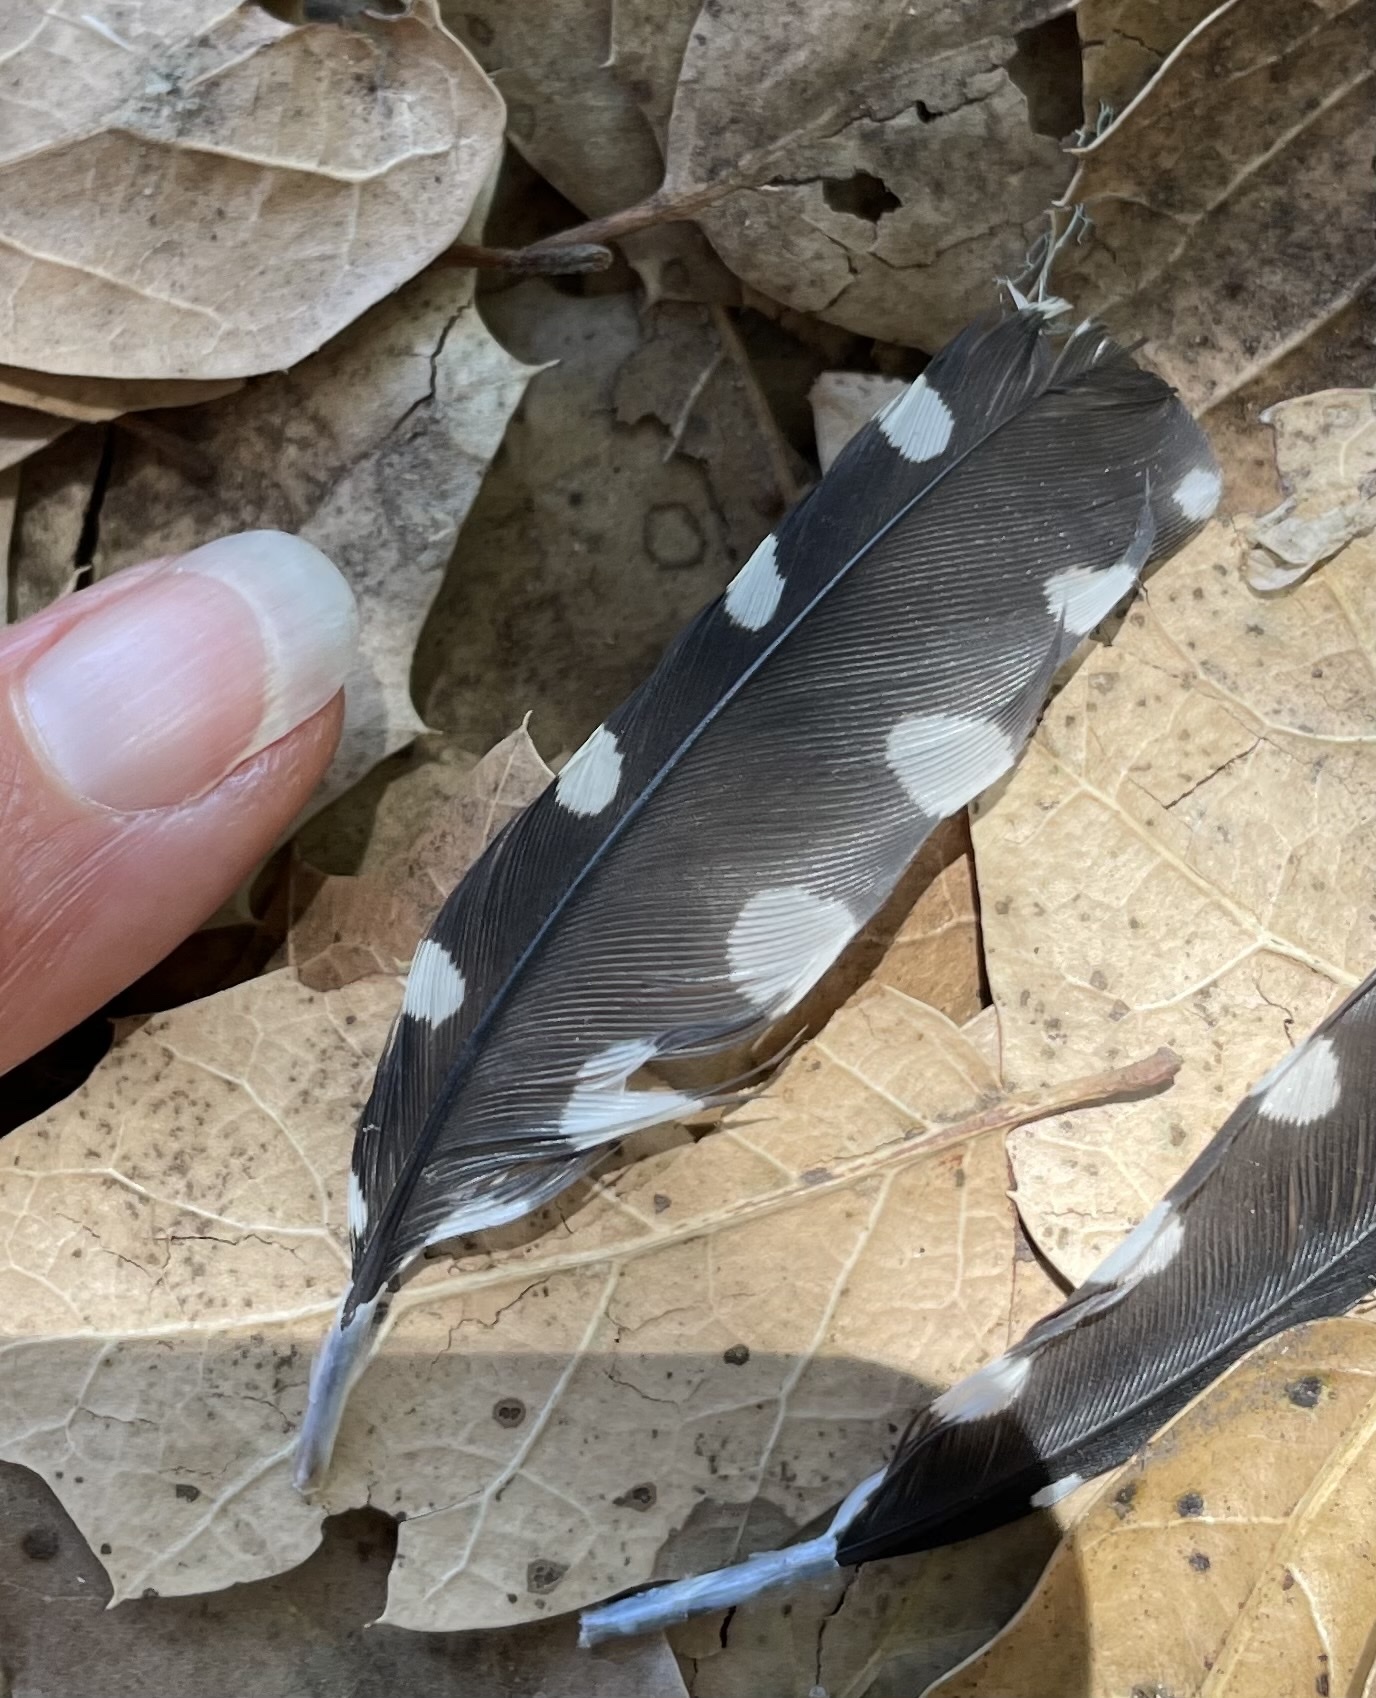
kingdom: Animalia
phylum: Chordata
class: Aves
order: Piciformes
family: Picidae
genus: Dryobates
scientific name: Dryobates nuttallii
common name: Nuttall's woodpecker
